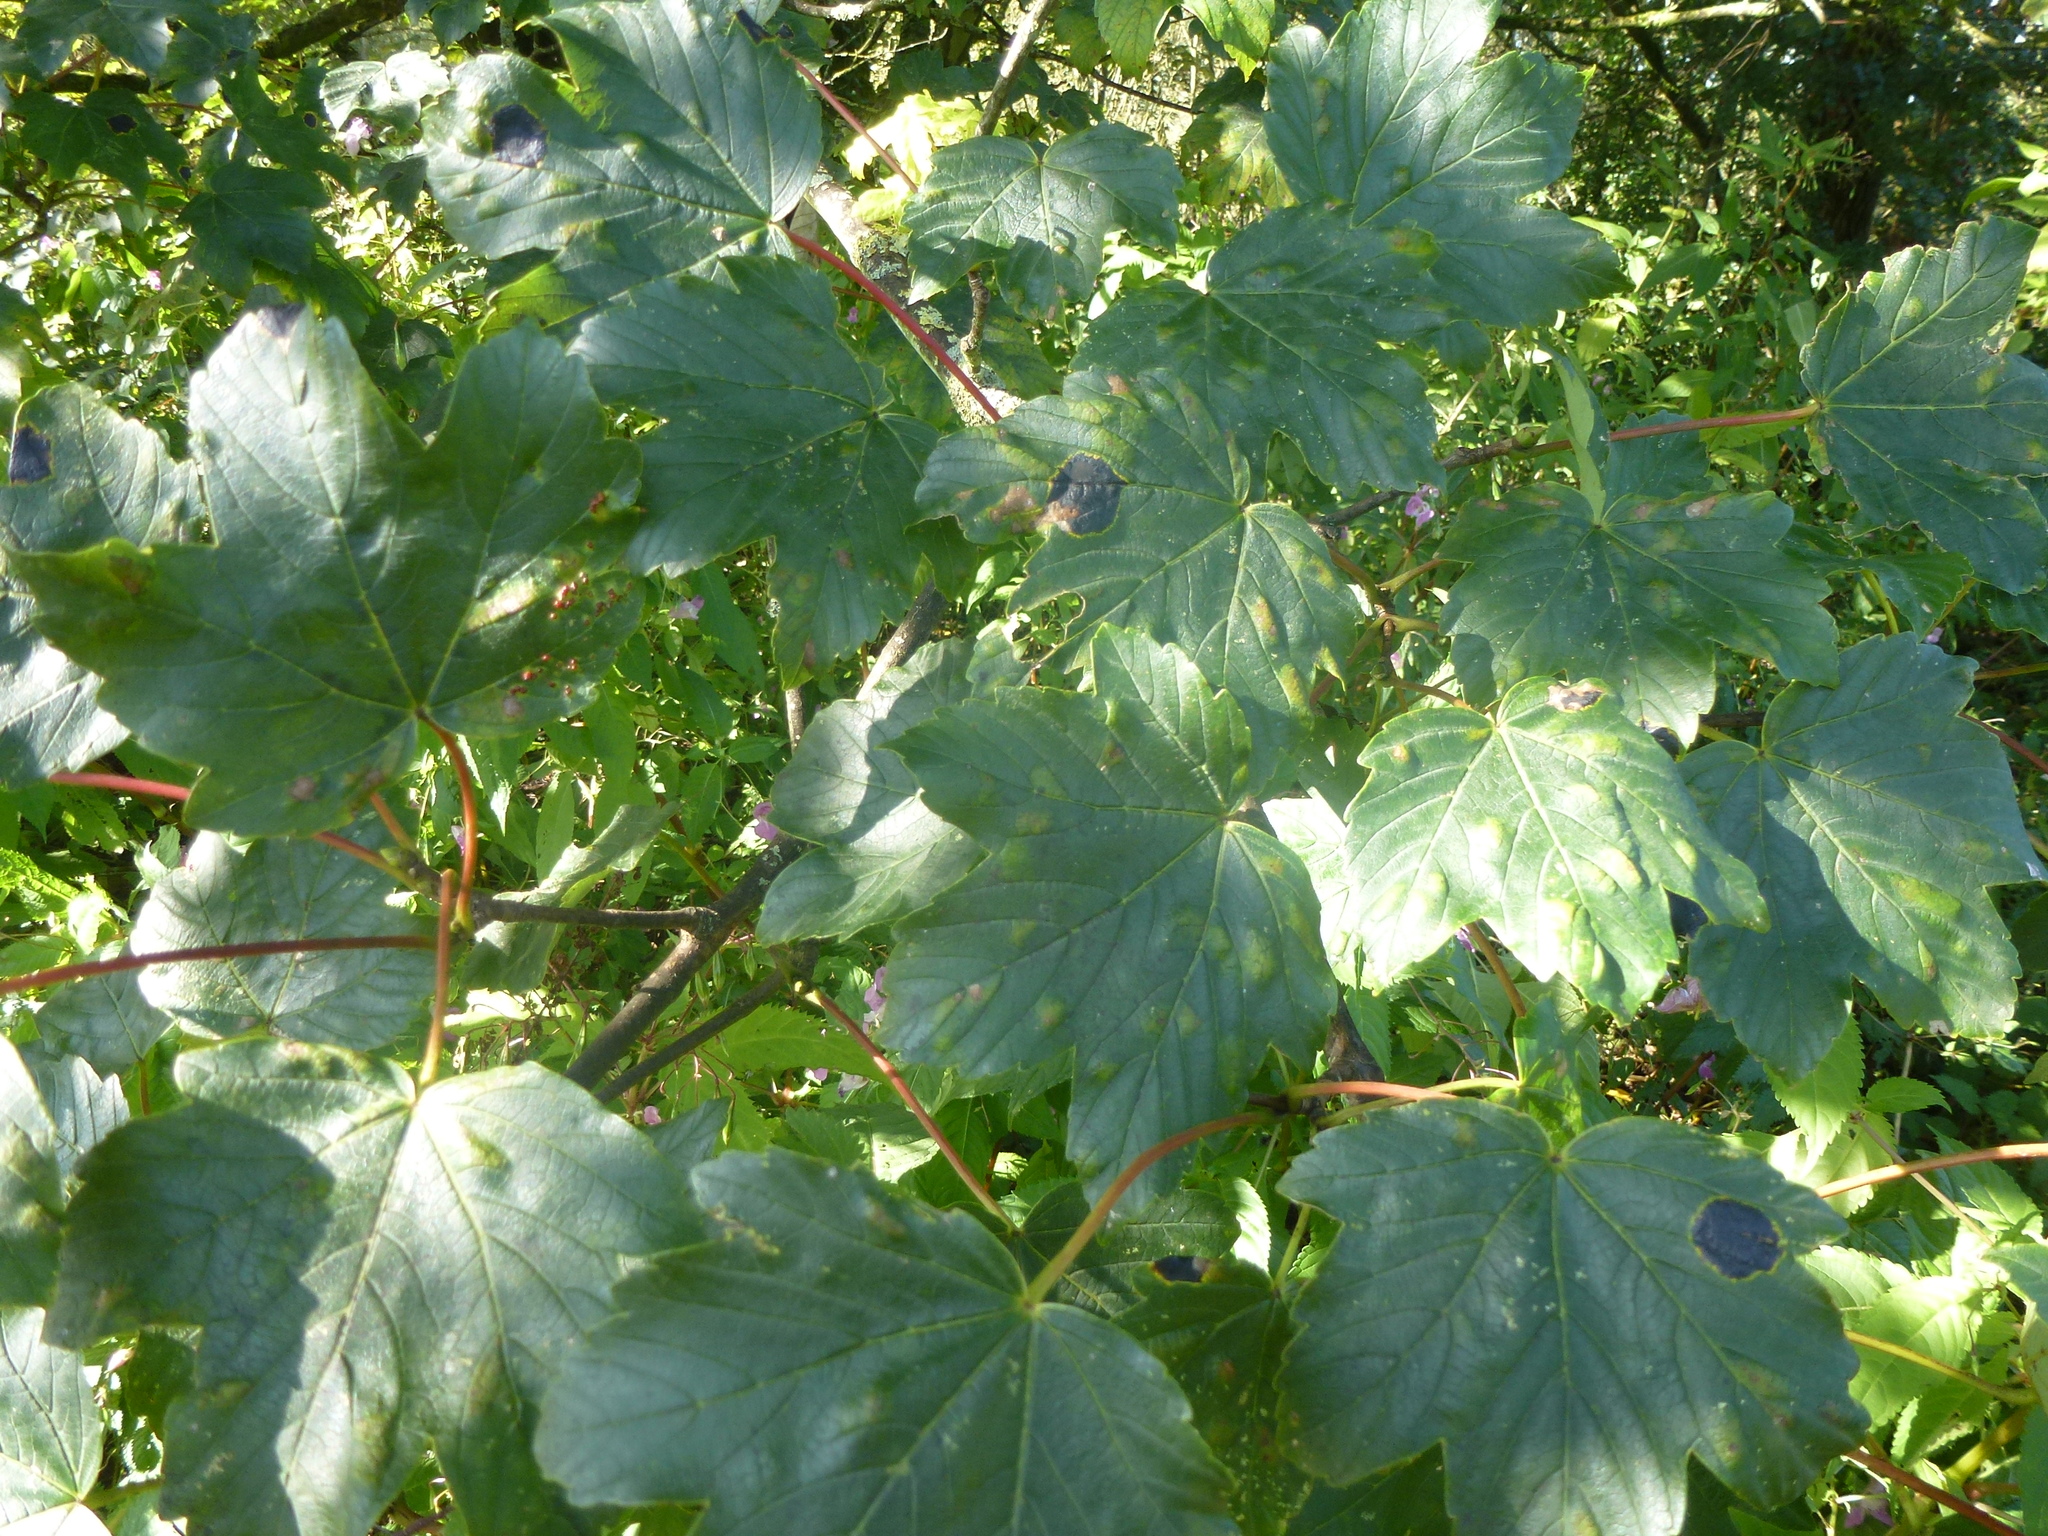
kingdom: Plantae
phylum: Tracheophyta
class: Magnoliopsida
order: Sapindales
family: Sapindaceae
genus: Acer
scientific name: Acer pseudoplatanus
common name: Sycamore
